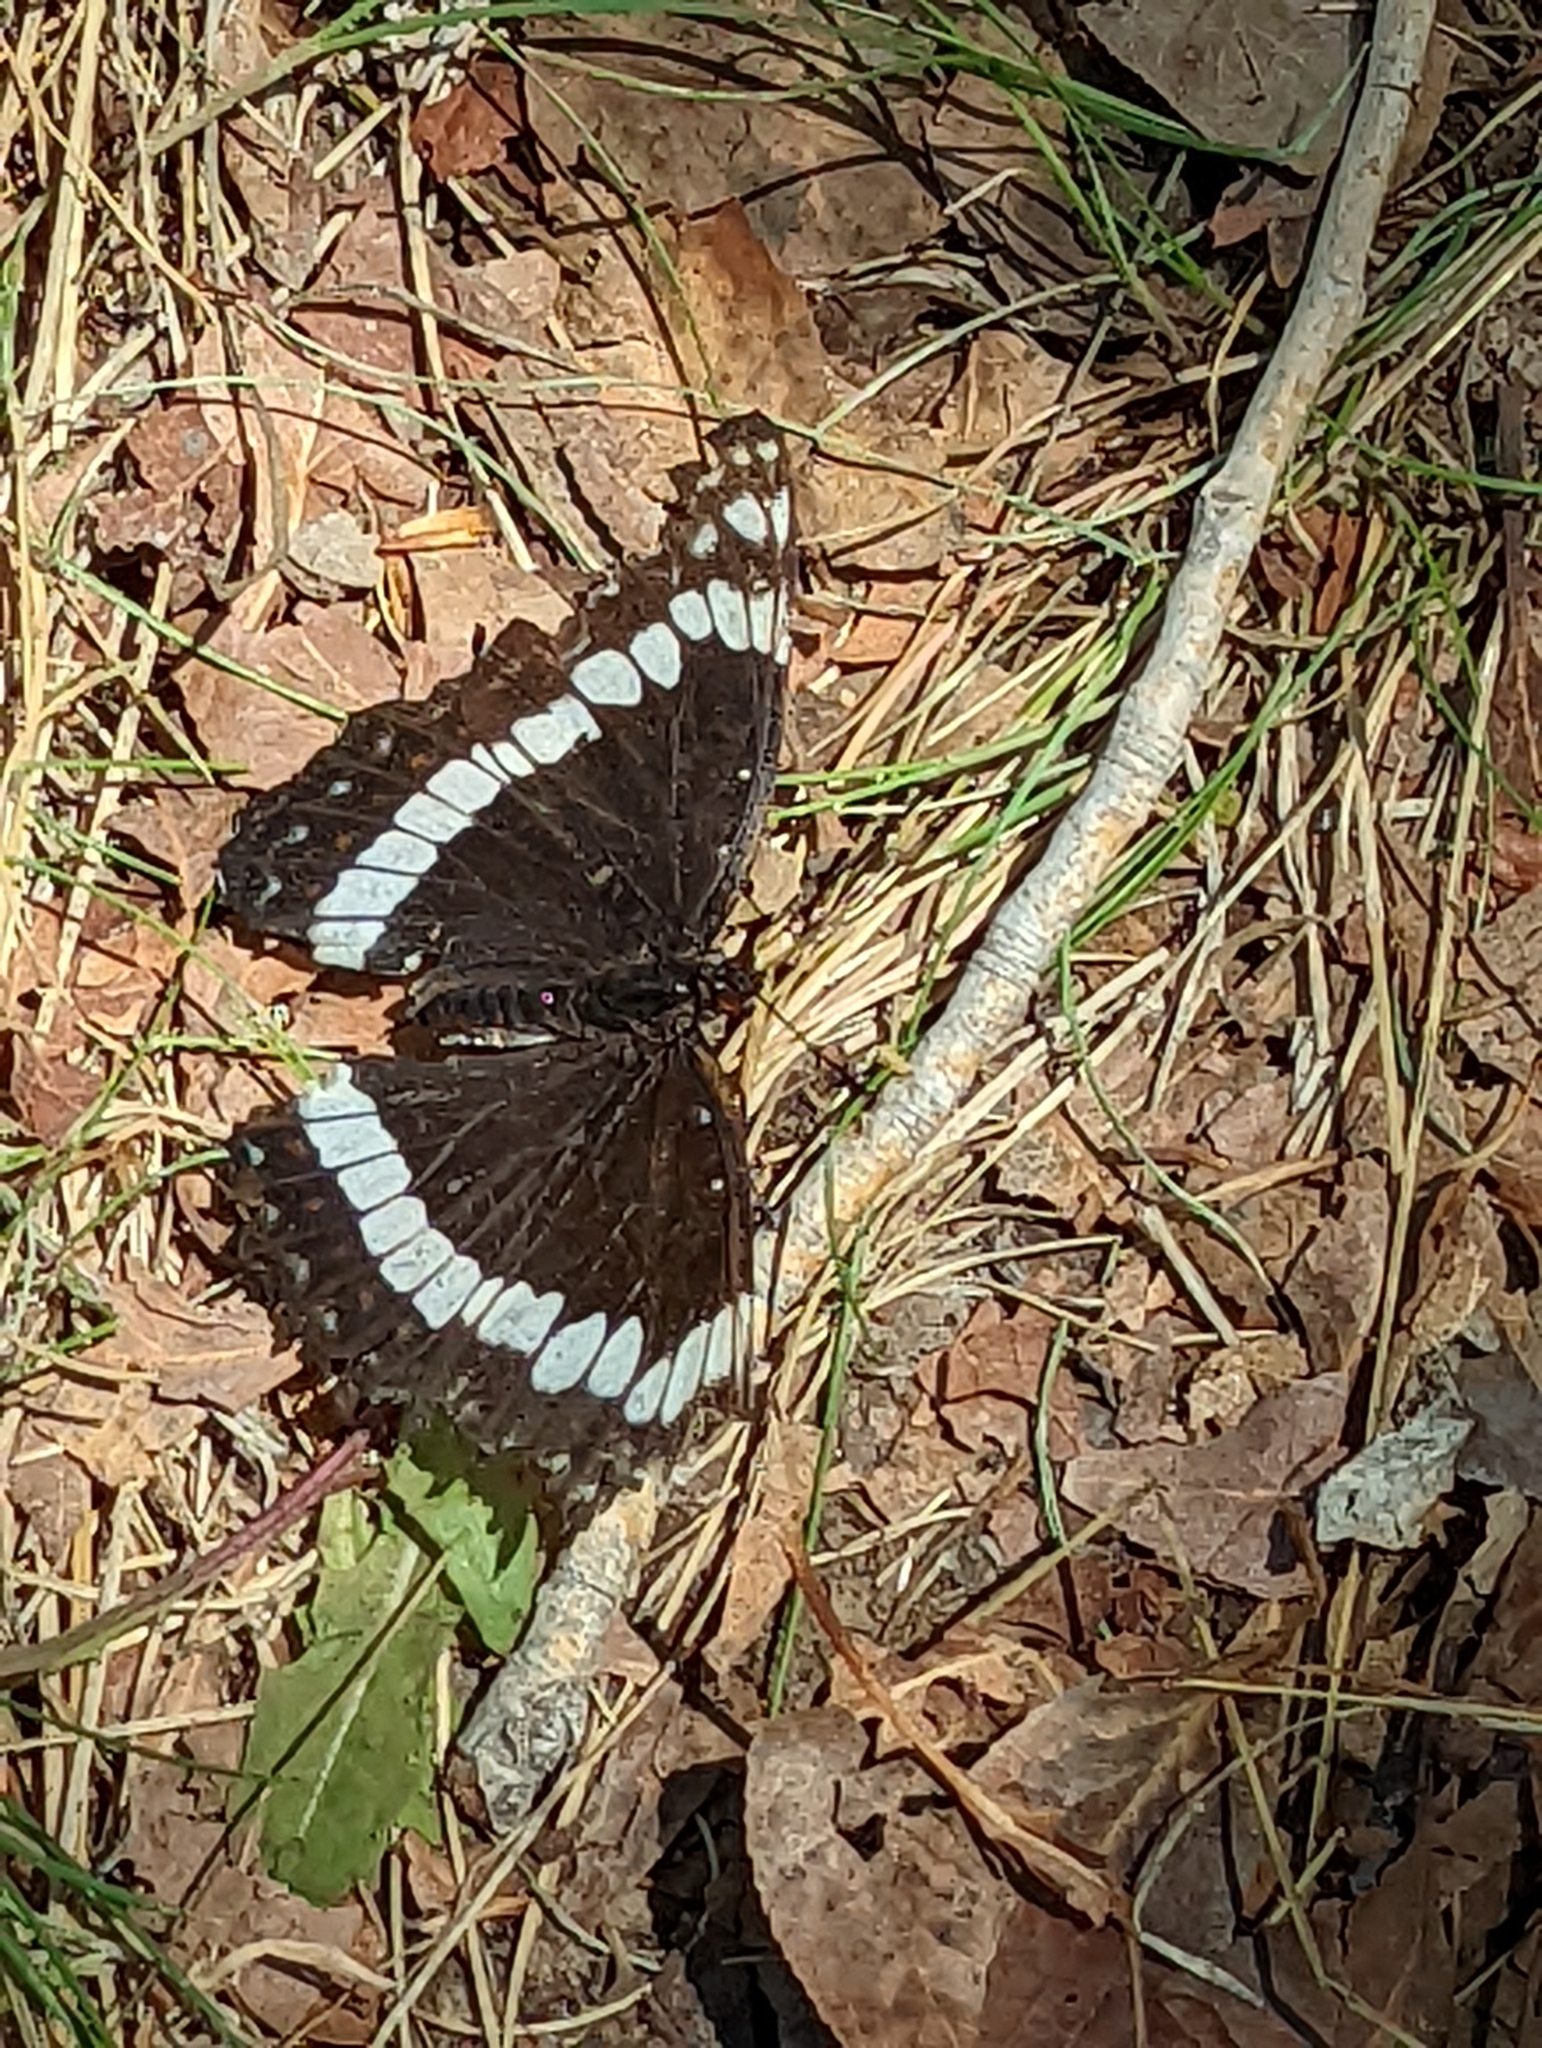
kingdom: Animalia
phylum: Arthropoda
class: Insecta
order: Lepidoptera
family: Nymphalidae
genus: Limenitis
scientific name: Limenitis weidemeyerii
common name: Weidemeyer's admiral
